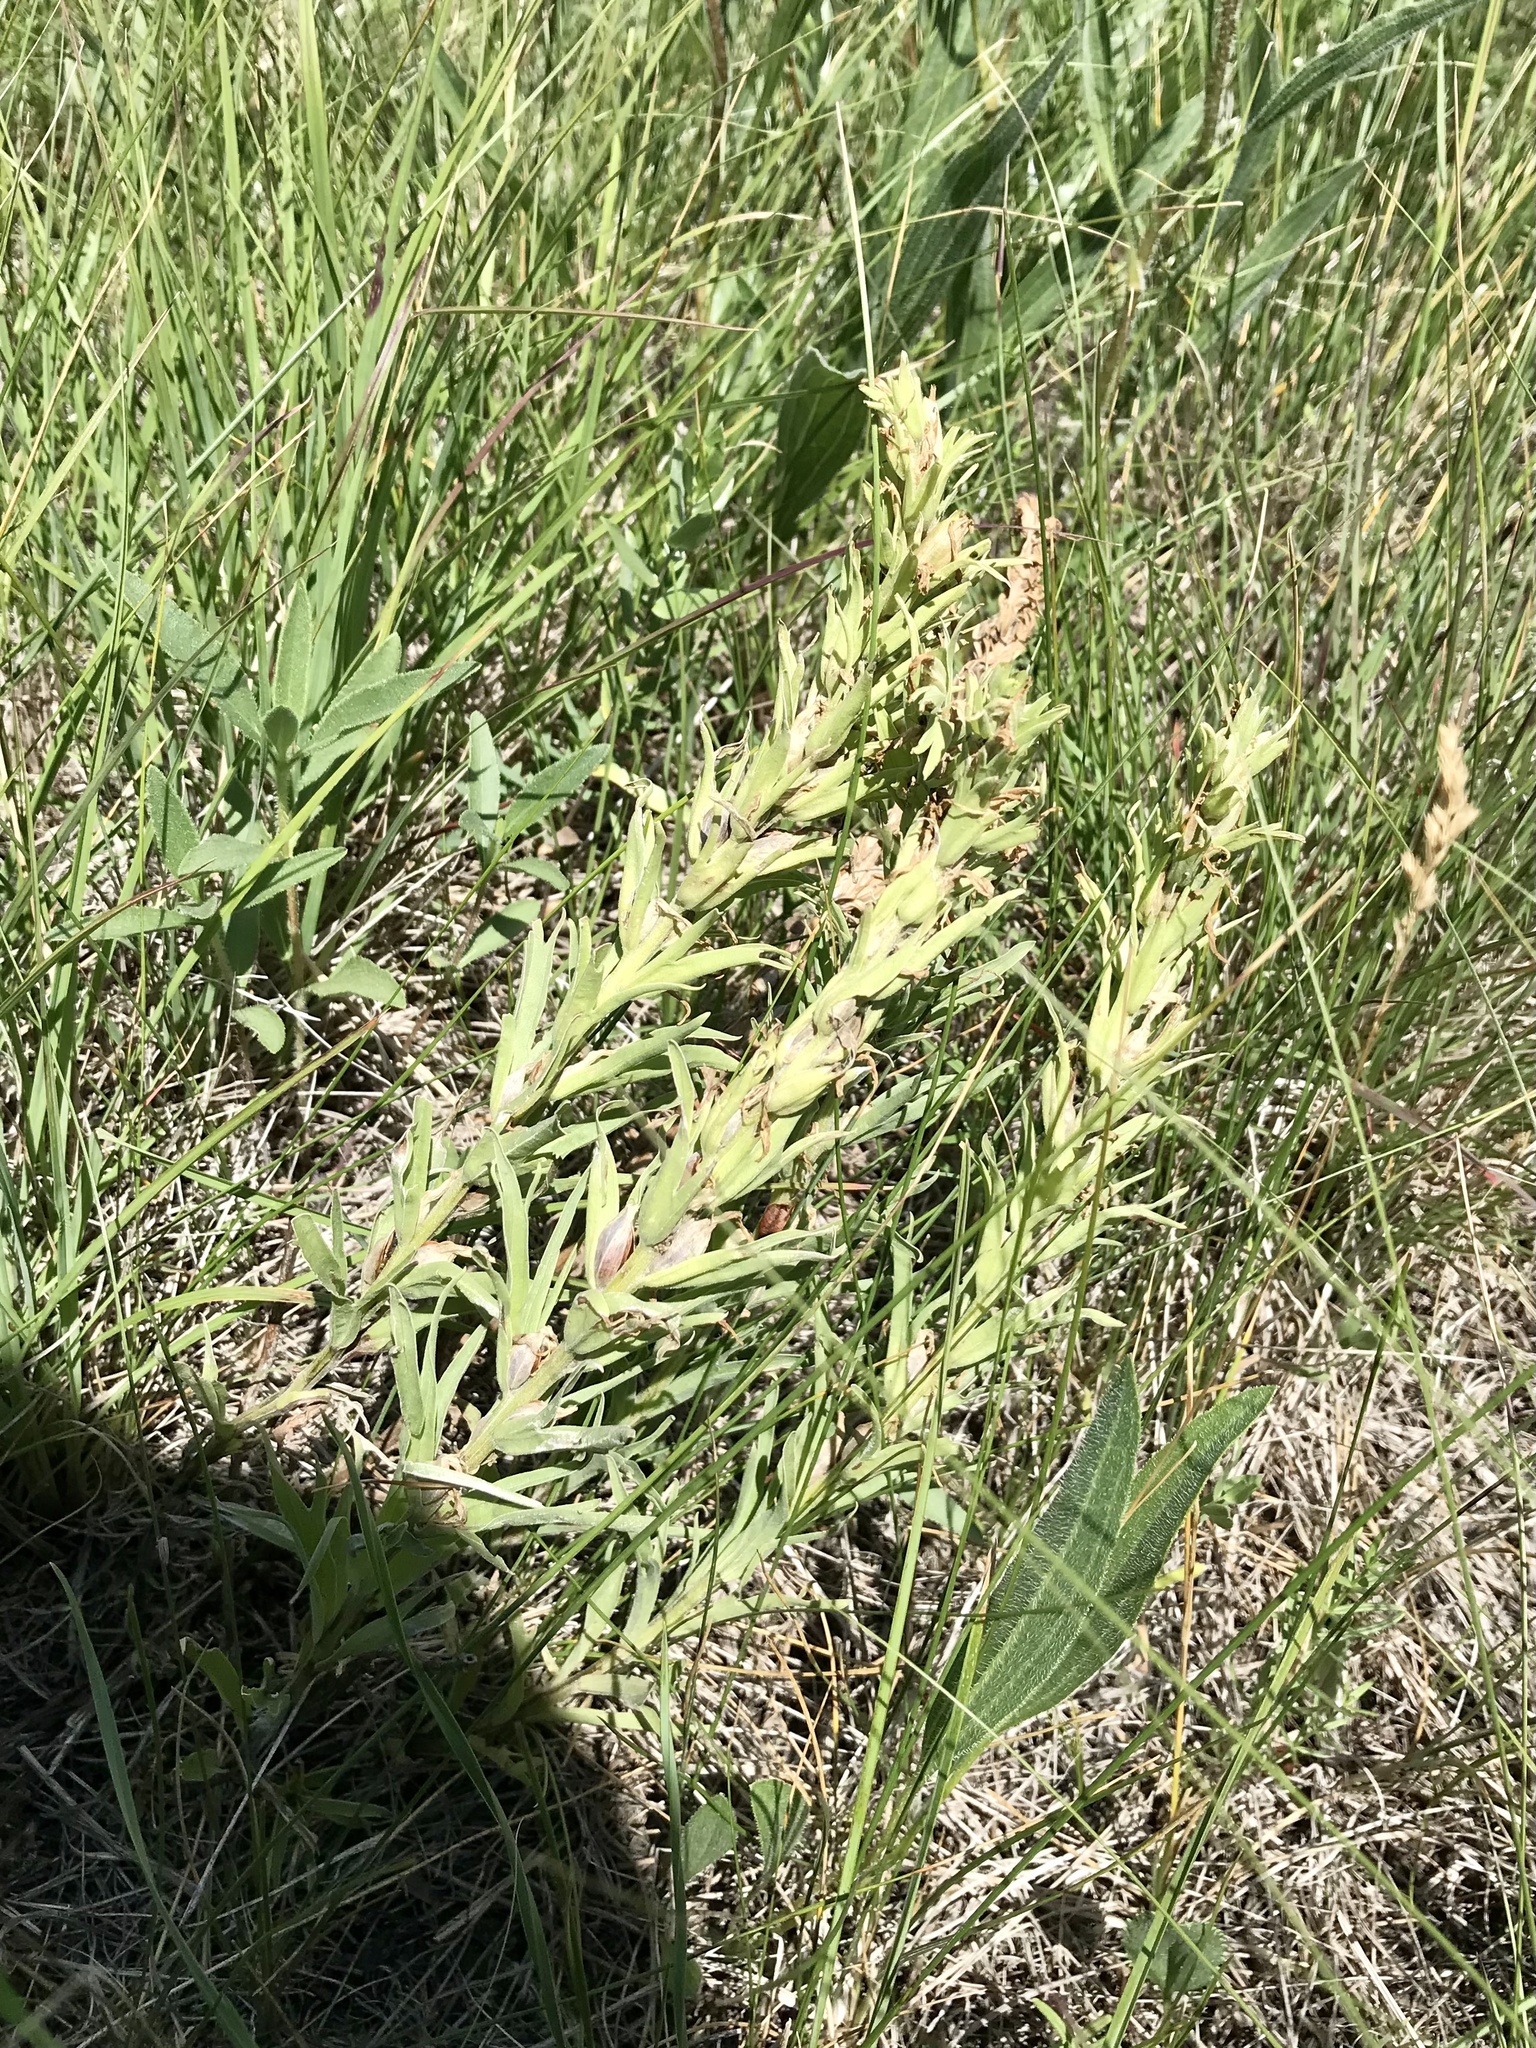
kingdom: Plantae
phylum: Tracheophyta
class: Magnoliopsida
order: Lamiales
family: Orobanchaceae
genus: Castilleja
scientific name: Castilleja sessiliflora
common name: Downy paintbrush
